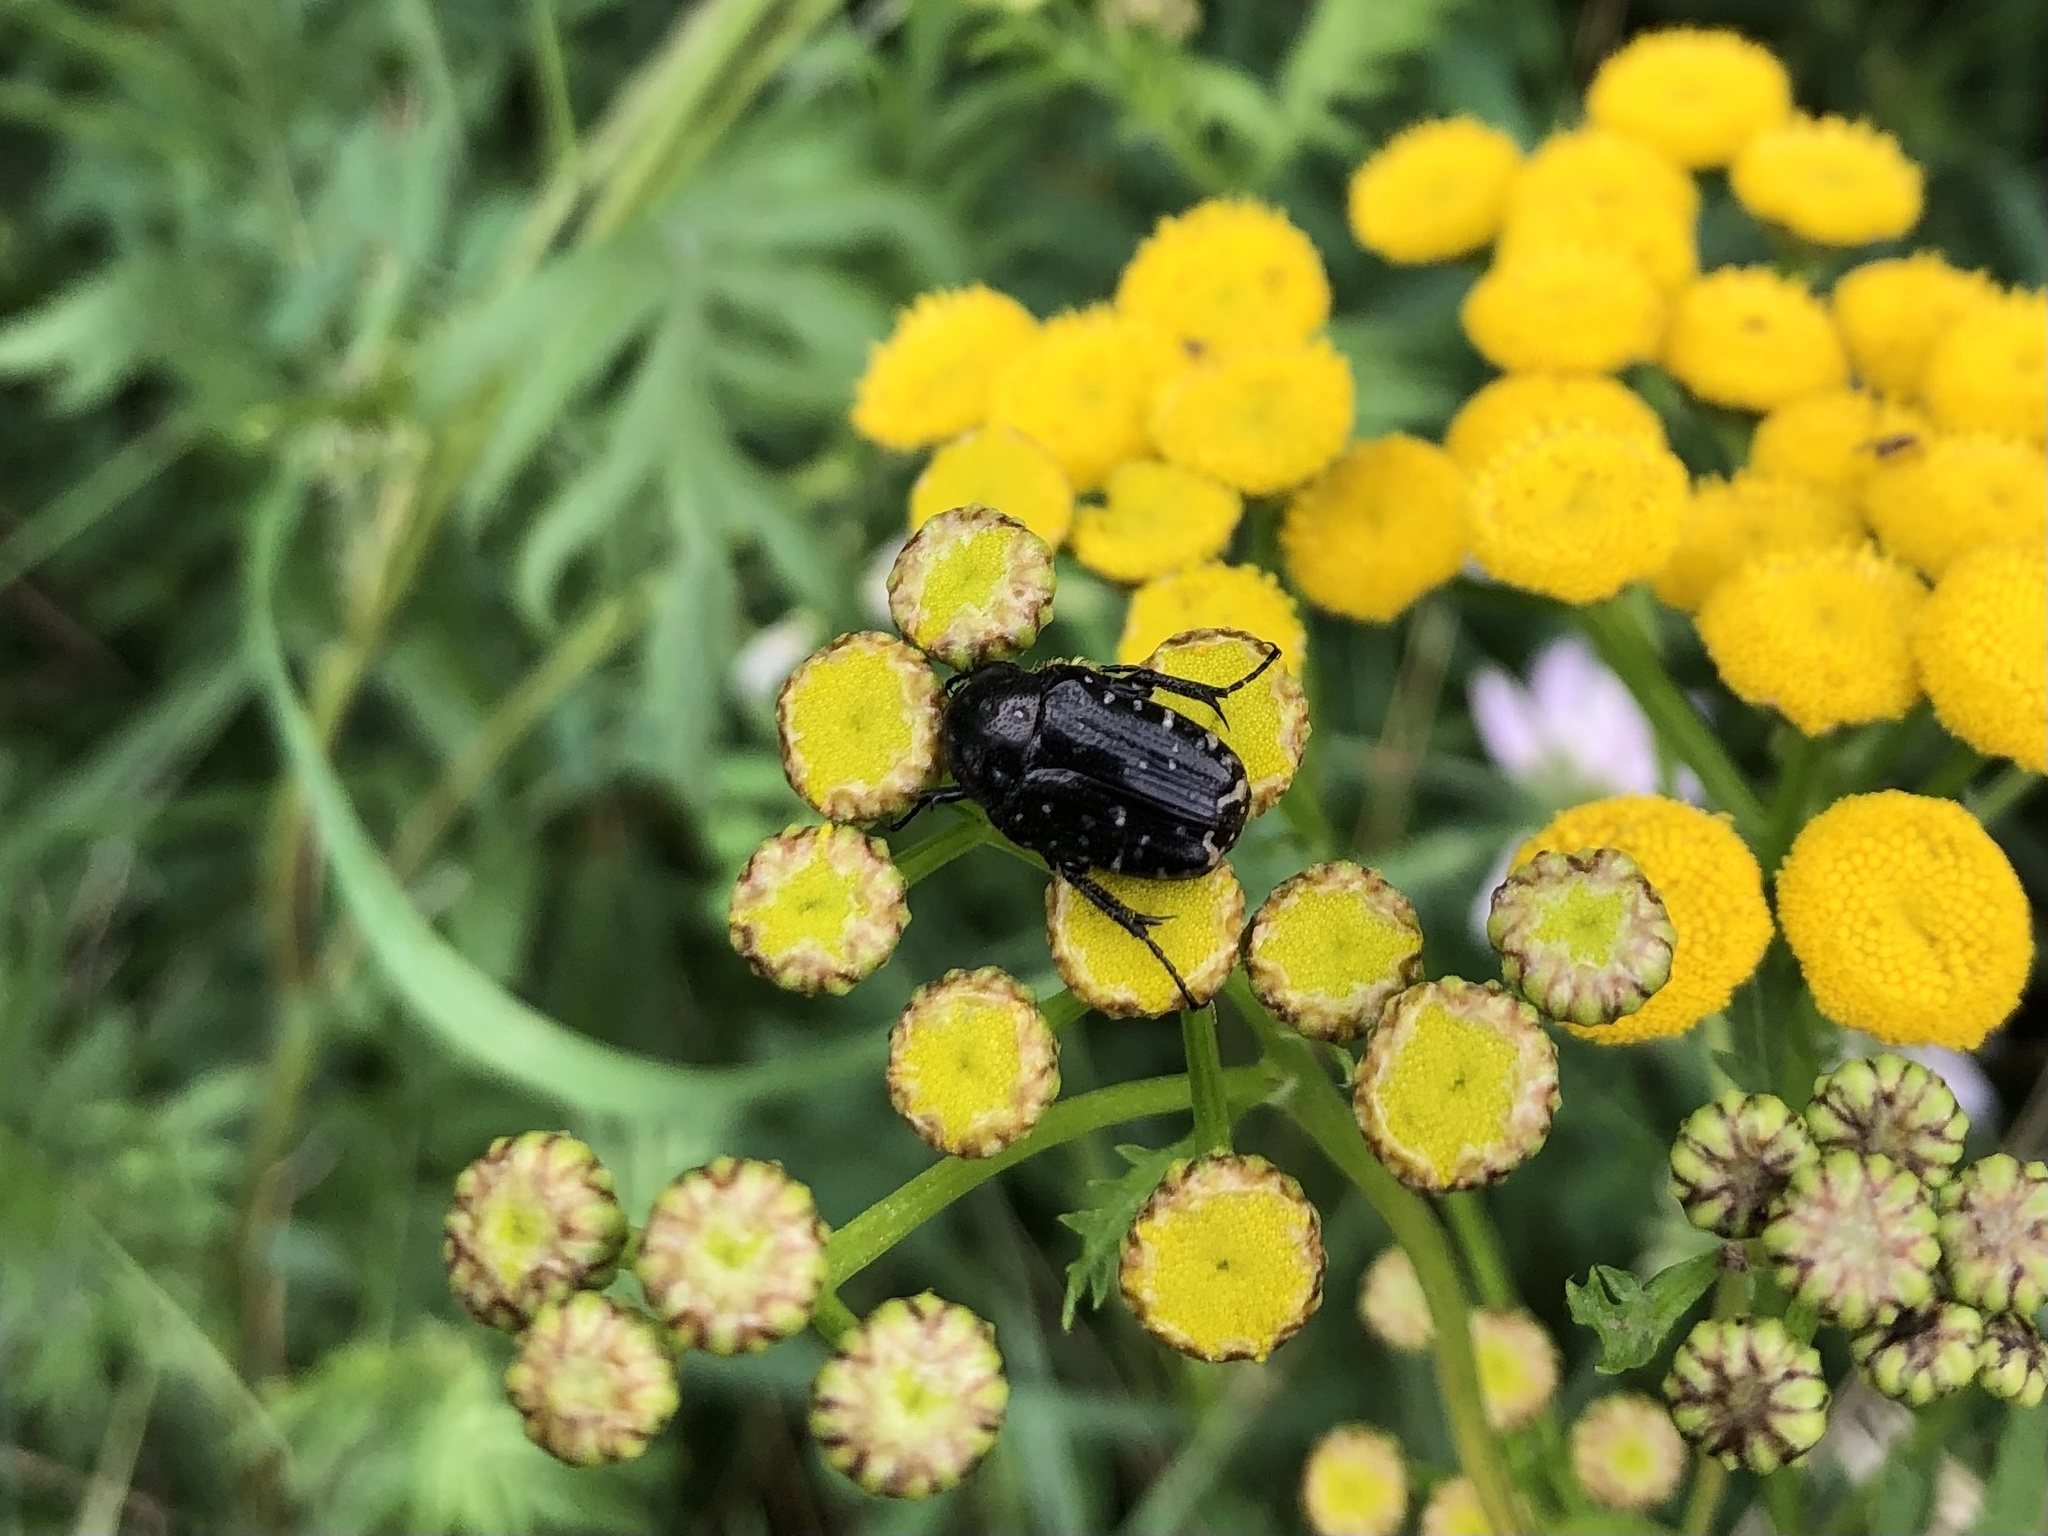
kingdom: Animalia
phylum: Arthropoda
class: Insecta
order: Coleoptera
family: Scarabaeidae
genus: Oxythyrea
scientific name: Oxythyrea funesta
